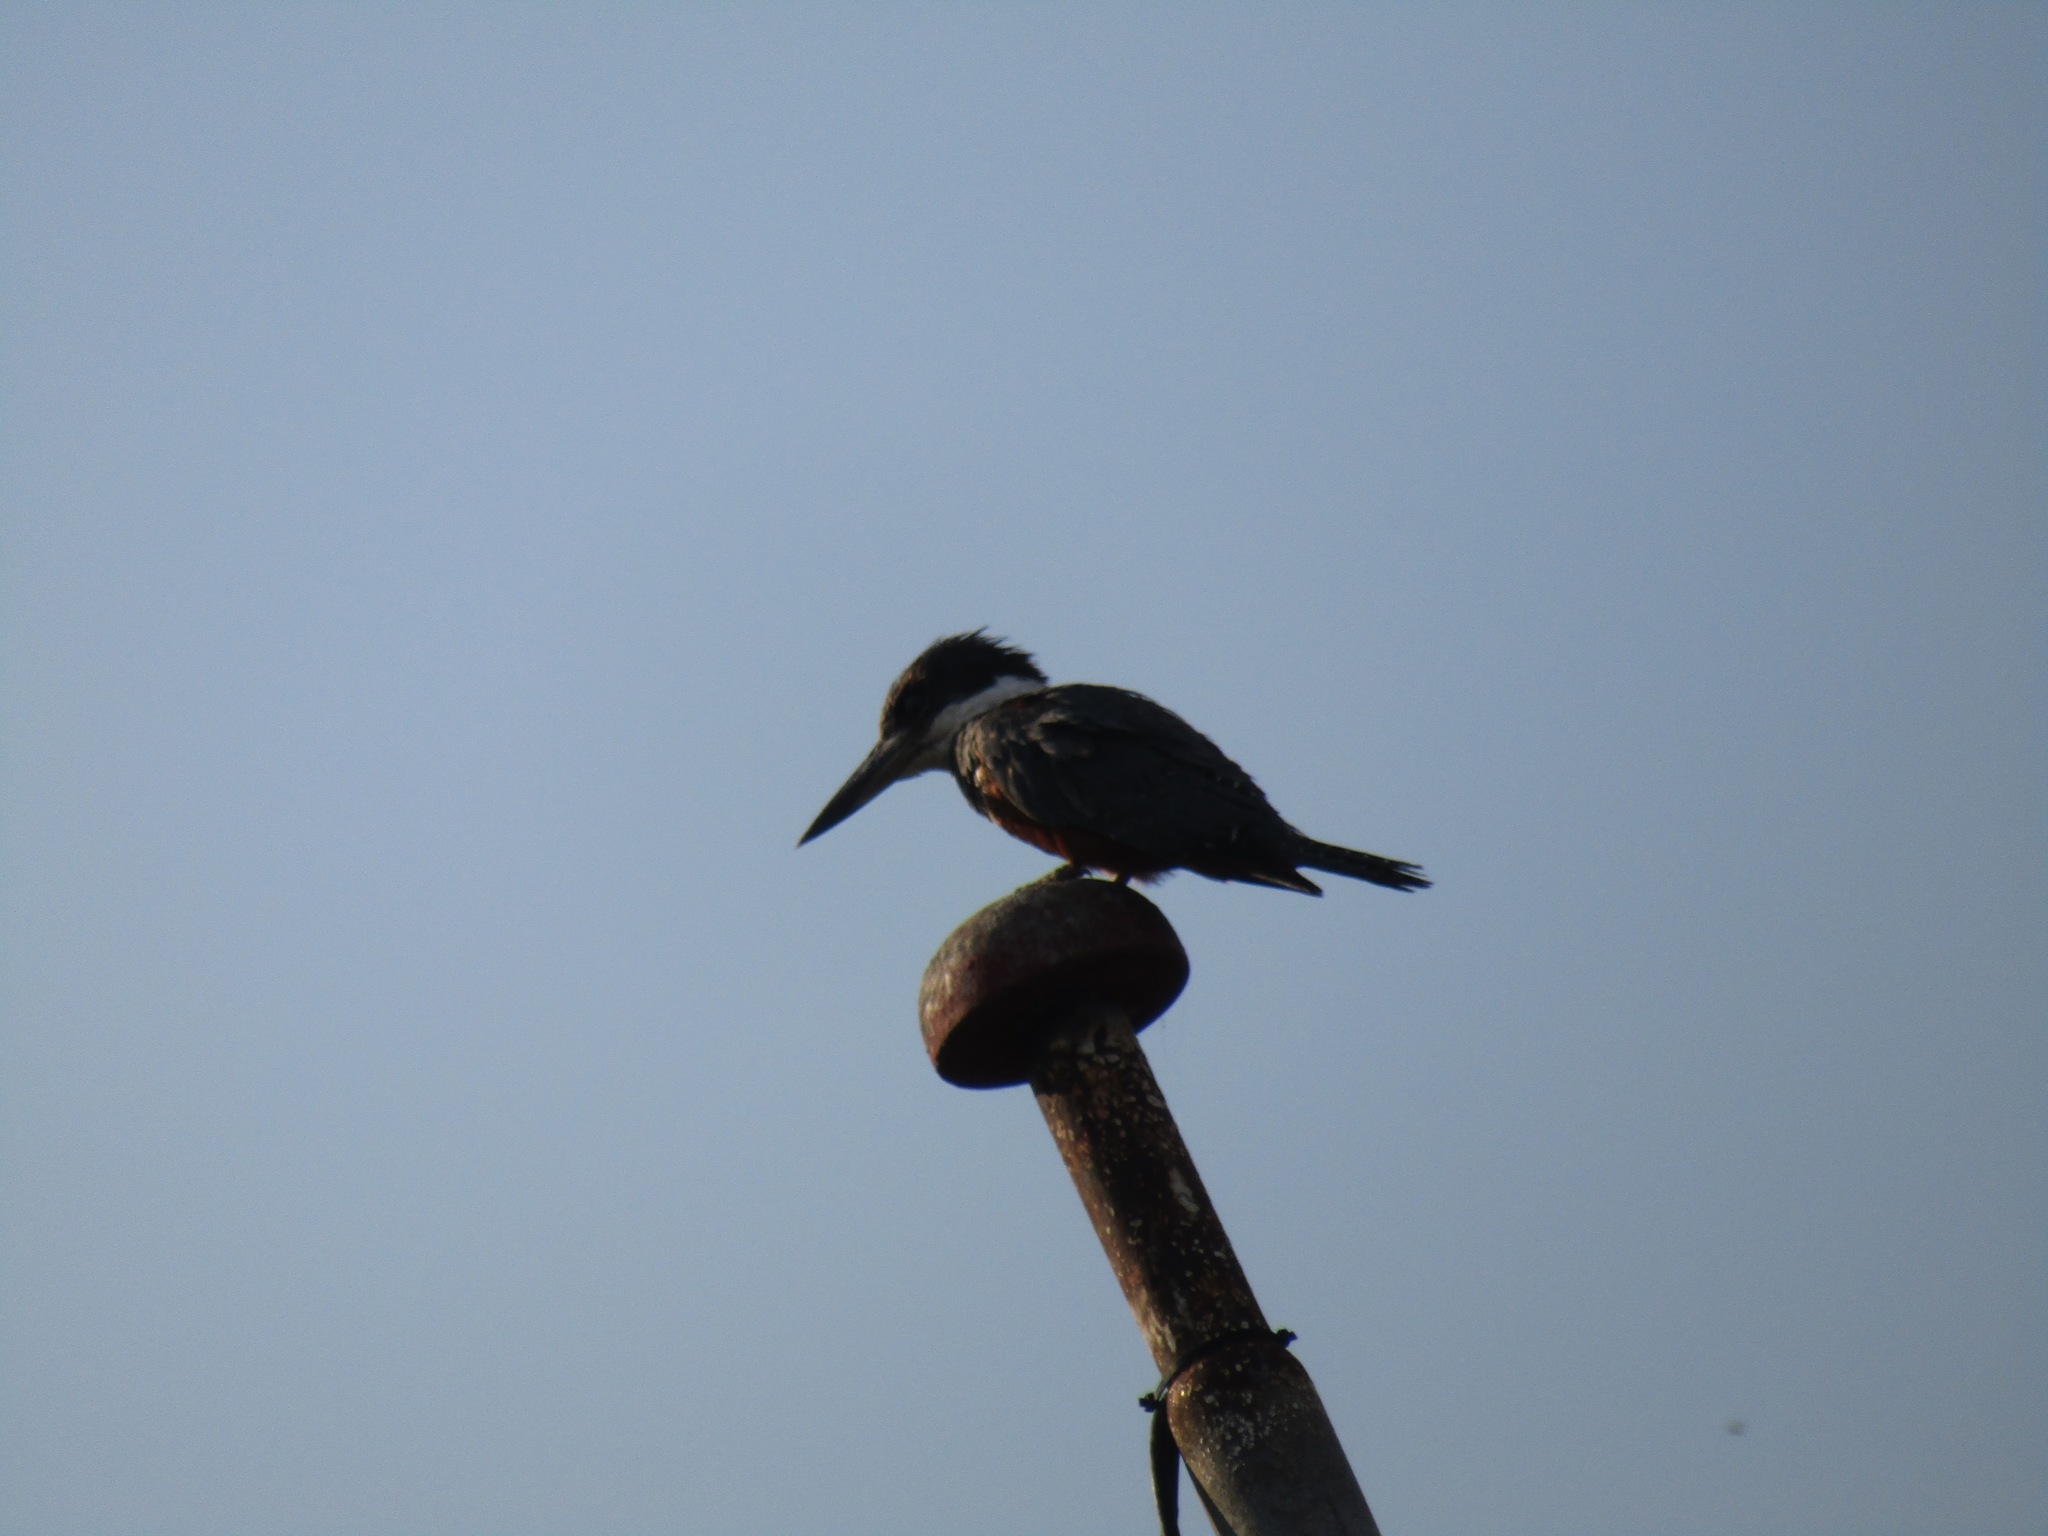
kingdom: Animalia
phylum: Chordata
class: Aves
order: Coraciiformes
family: Alcedinidae
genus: Megaceryle
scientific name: Megaceryle torquata
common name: Ringed kingfisher
